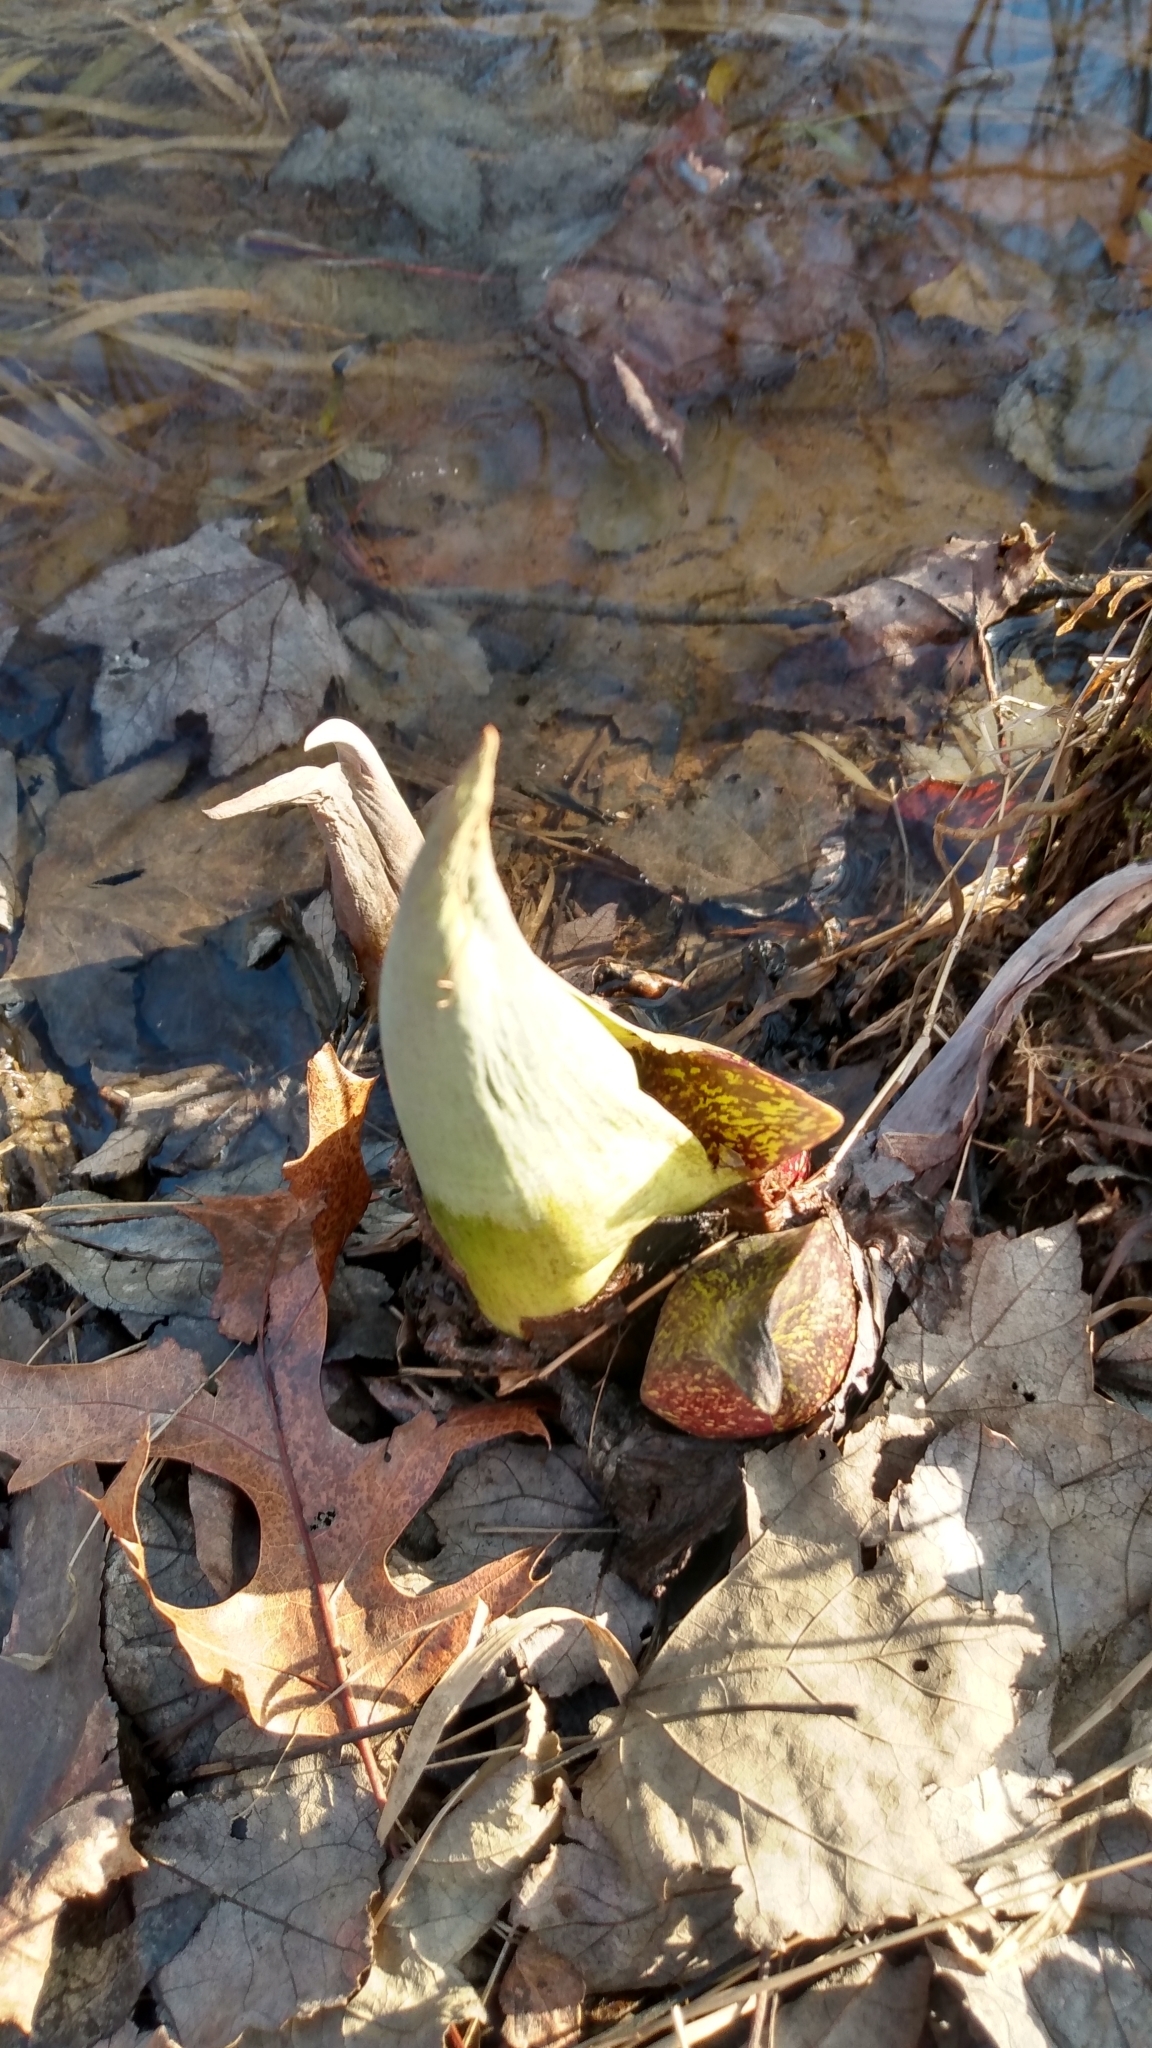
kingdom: Plantae
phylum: Tracheophyta
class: Liliopsida
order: Alismatales
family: Araceae
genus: Symplocarpus
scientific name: Symplocarpus foetidus
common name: Eastern skunk cabbage
